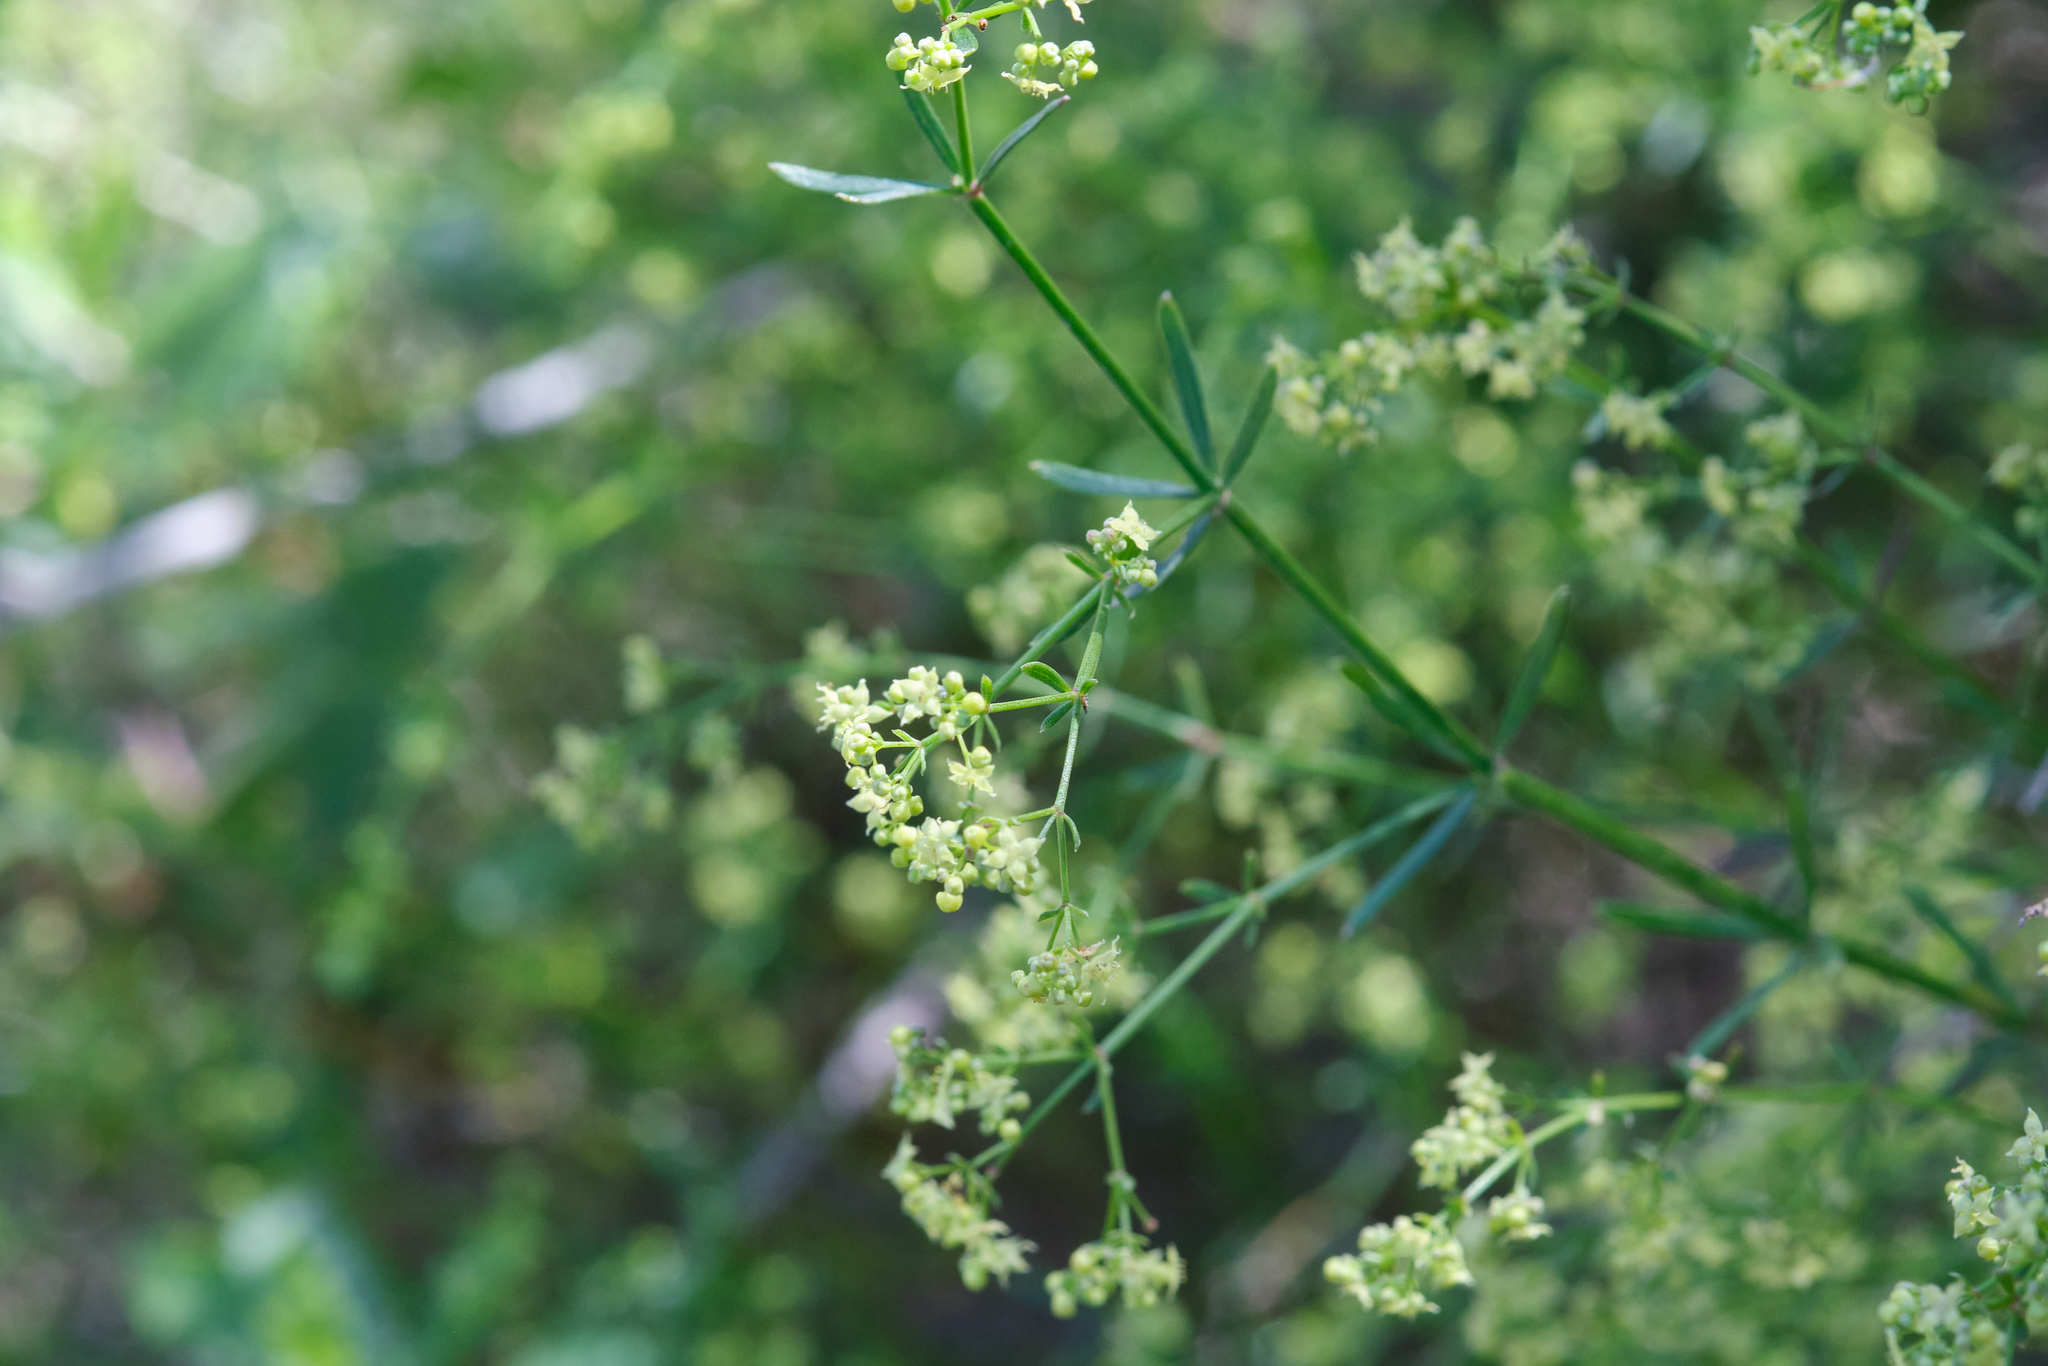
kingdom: Plantae
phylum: Tracheophyta
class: Magnoliopsida
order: Gentianales
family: Rubiaceae
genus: Galium
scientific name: Galium angustifolium
